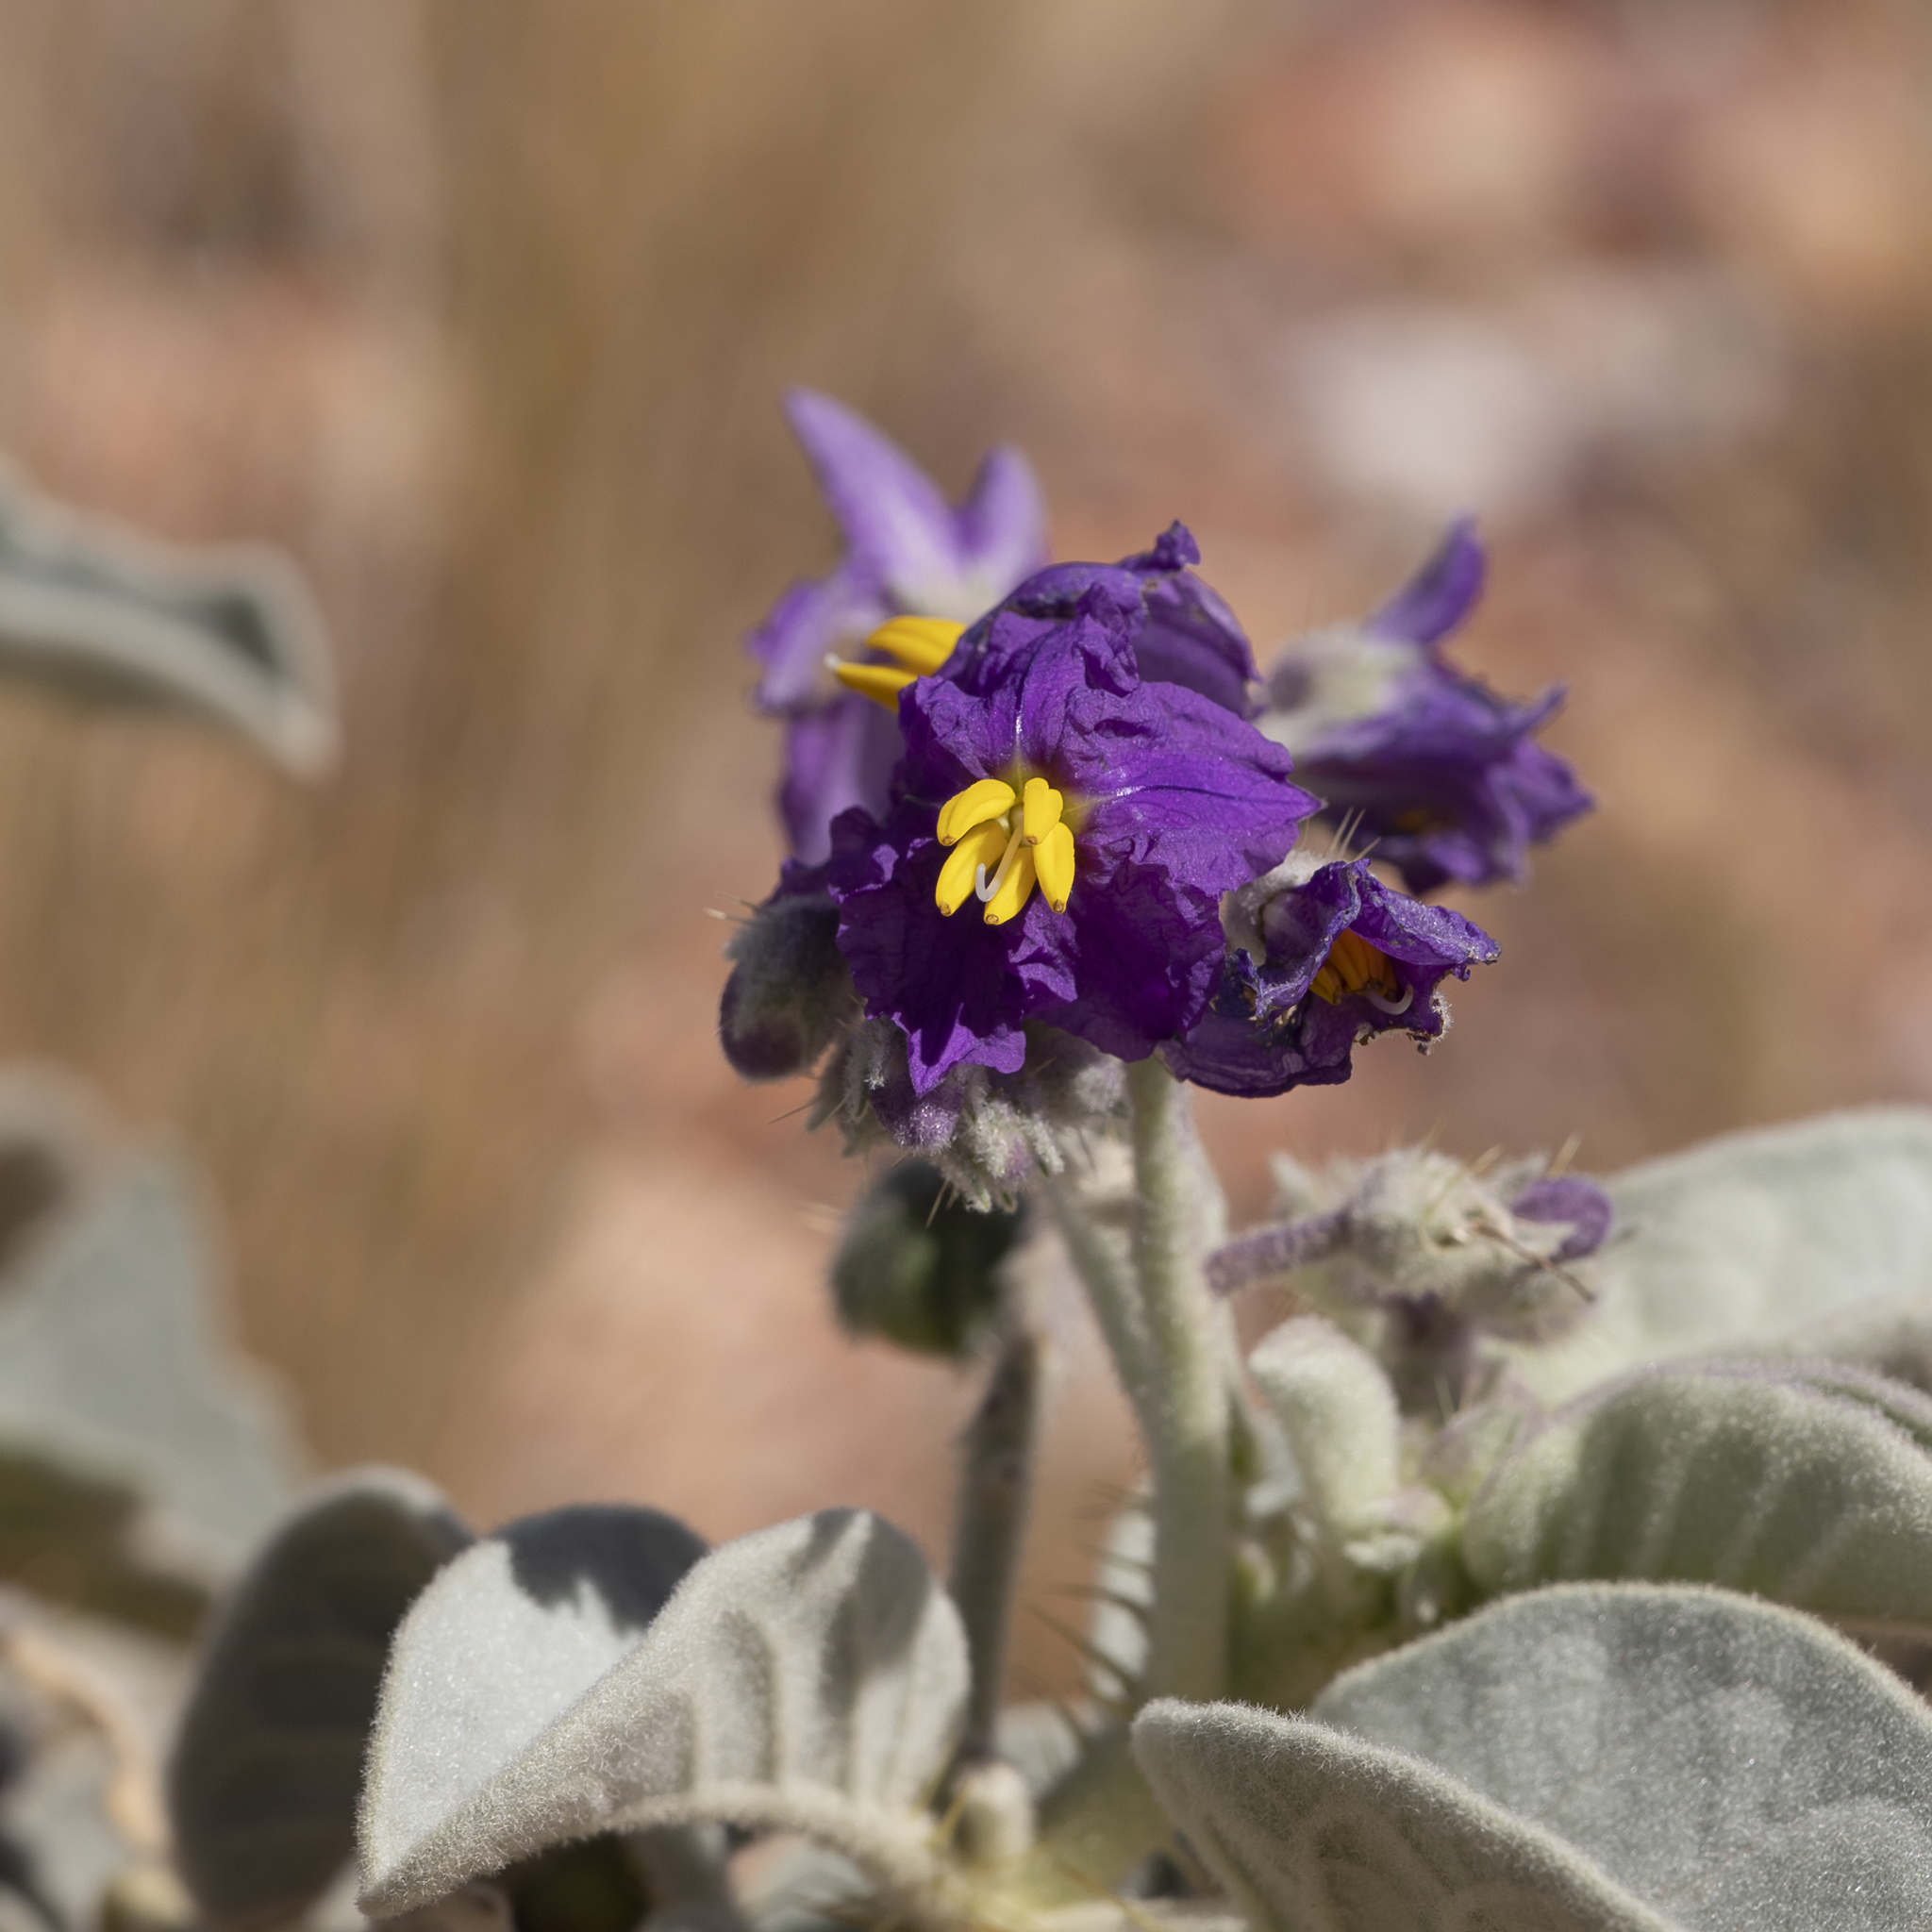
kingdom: Plantae
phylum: Tracheophyta
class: Magnoliopsida
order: Solanales
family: Solanaceae
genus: Solanum
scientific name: Solanum quadriloculatum
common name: Wild tomato
